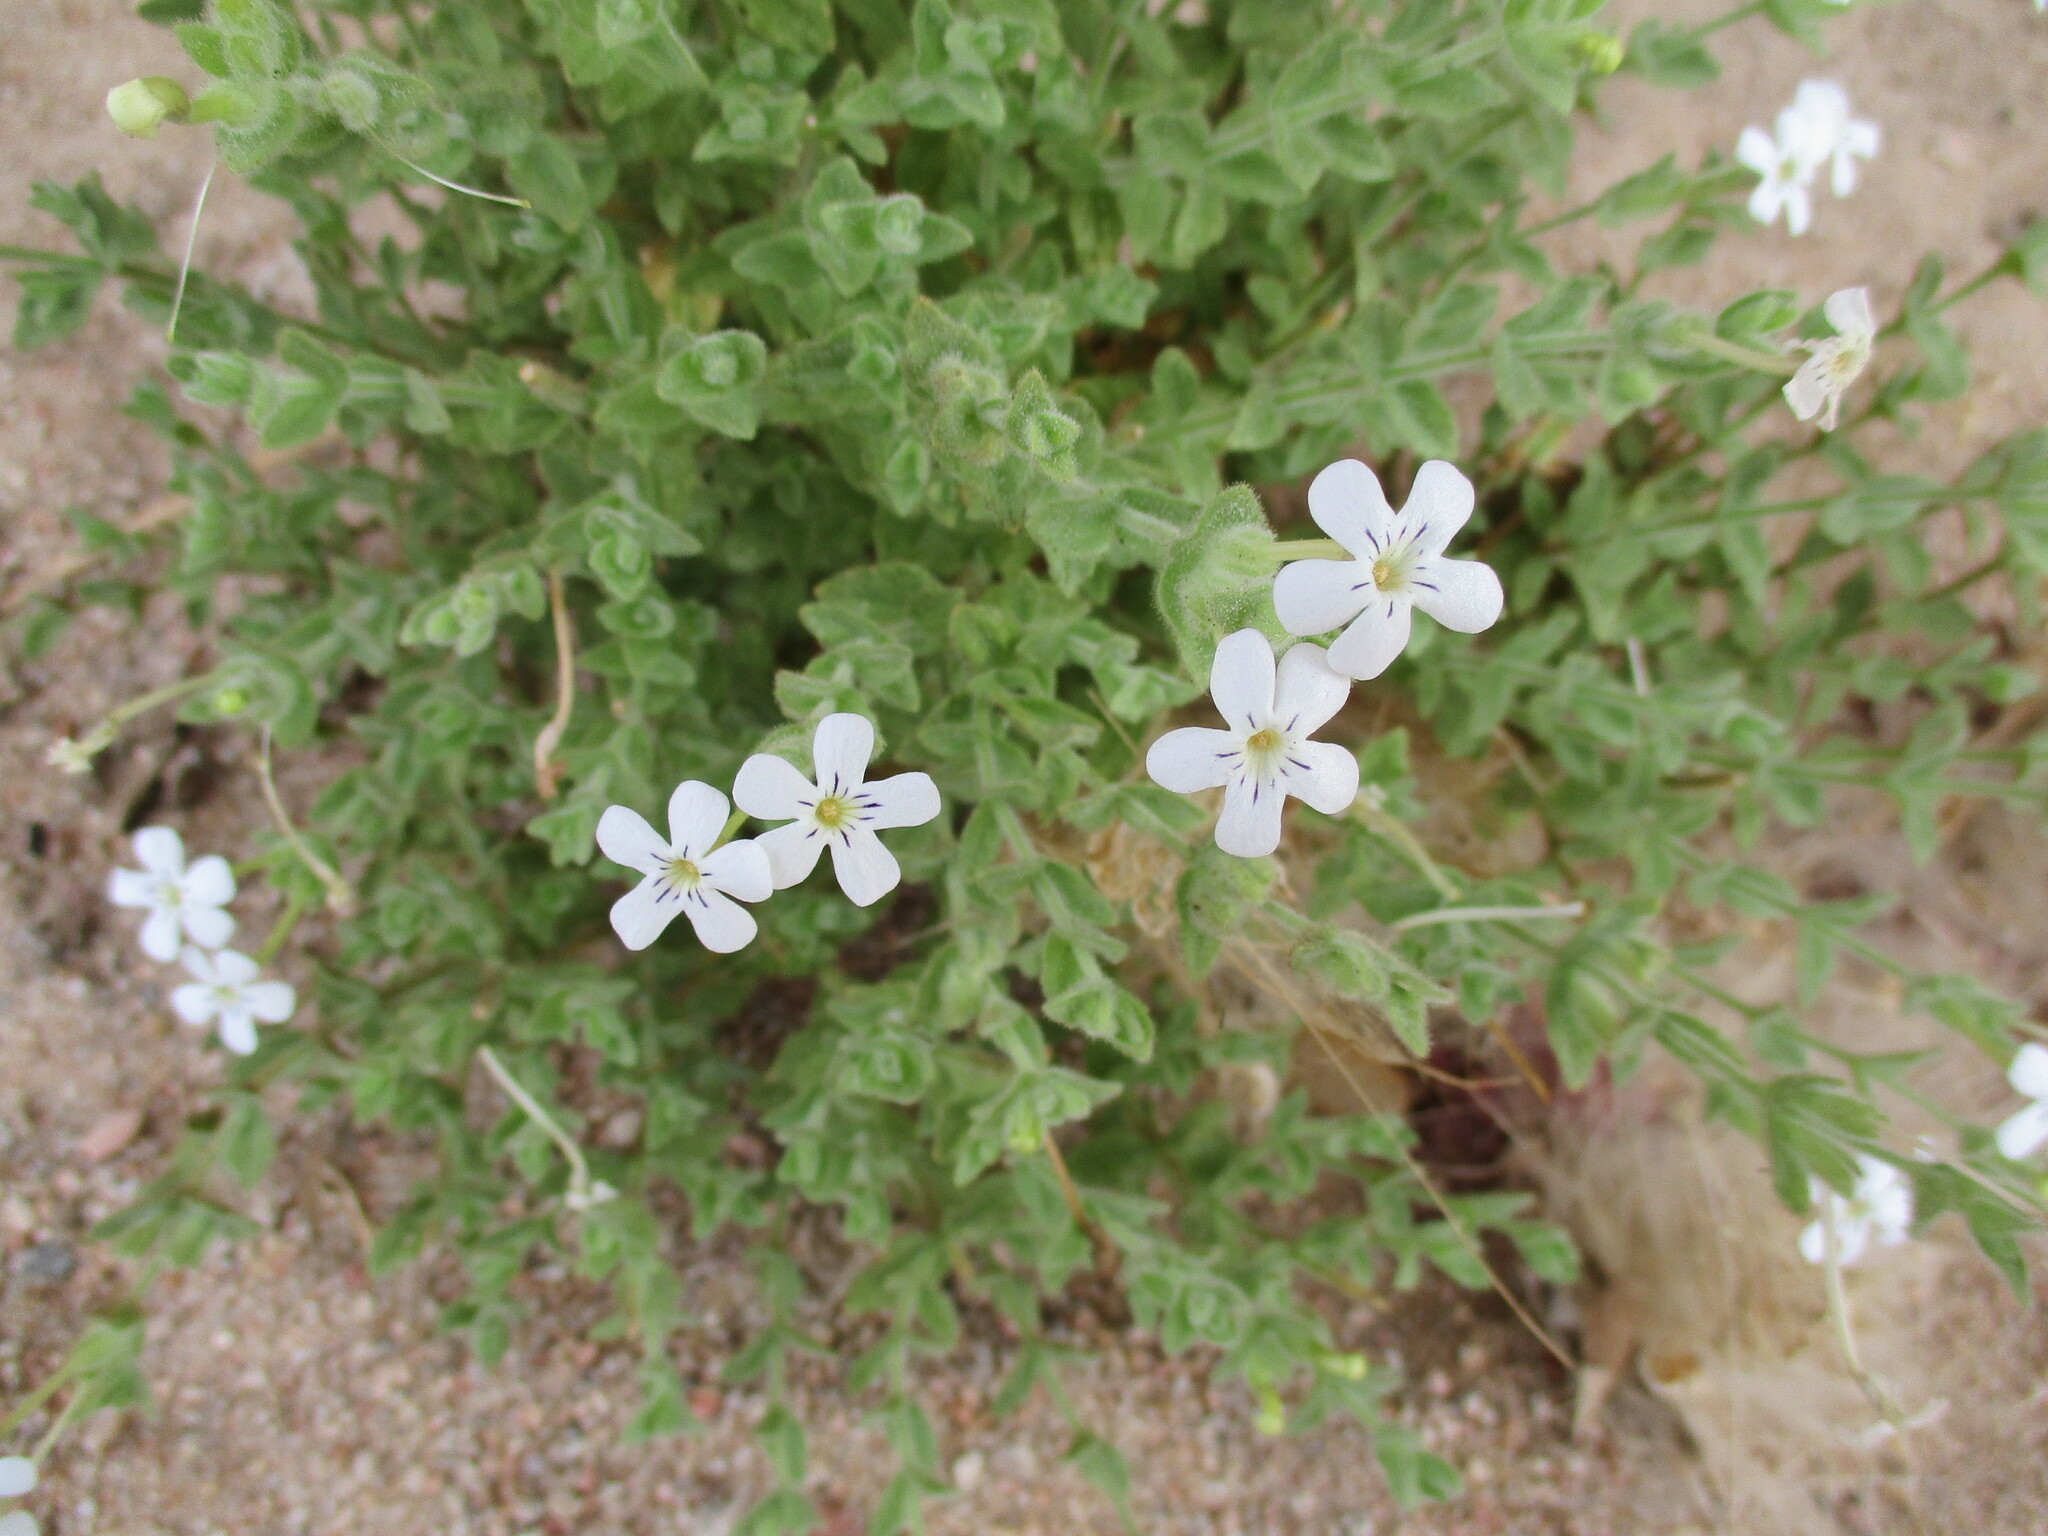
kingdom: Plantae
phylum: Tracheophyta
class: Magnoliopsida
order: Lamiales
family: Scrophulariaceae
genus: Jamesbrittenia
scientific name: Jamesbrittenia maxii
